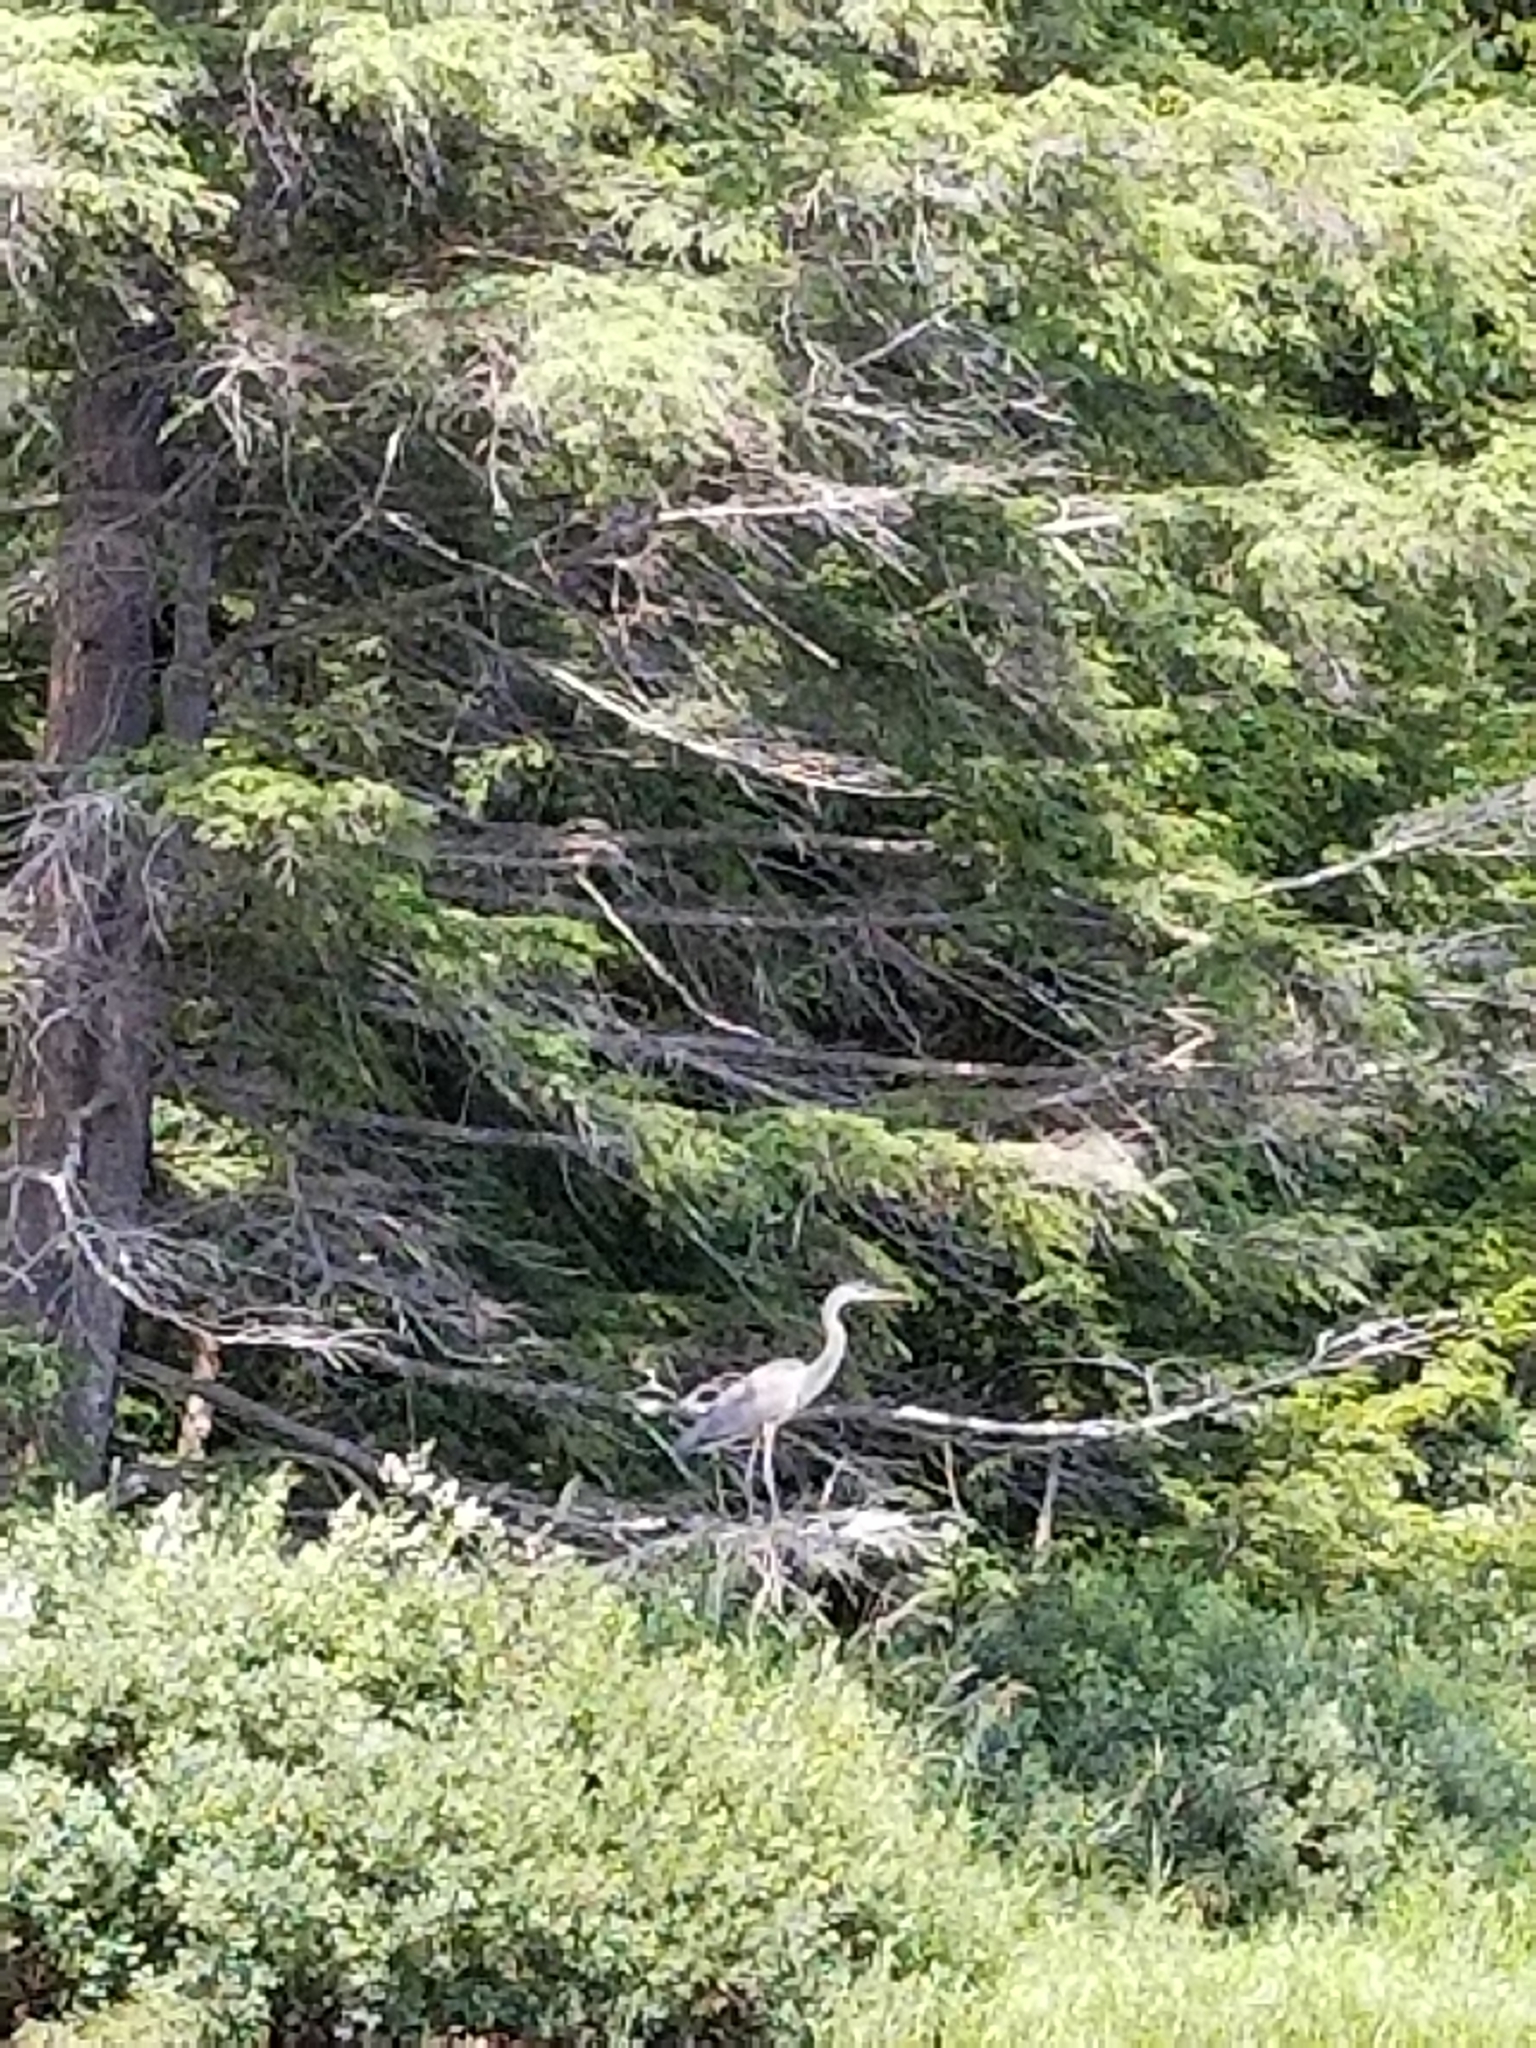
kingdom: Animalia
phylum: Chordata
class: Aves
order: Pelecaniformes
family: Ardeidae
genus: Ardea
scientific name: Ardea herodias
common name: Great blue heron
